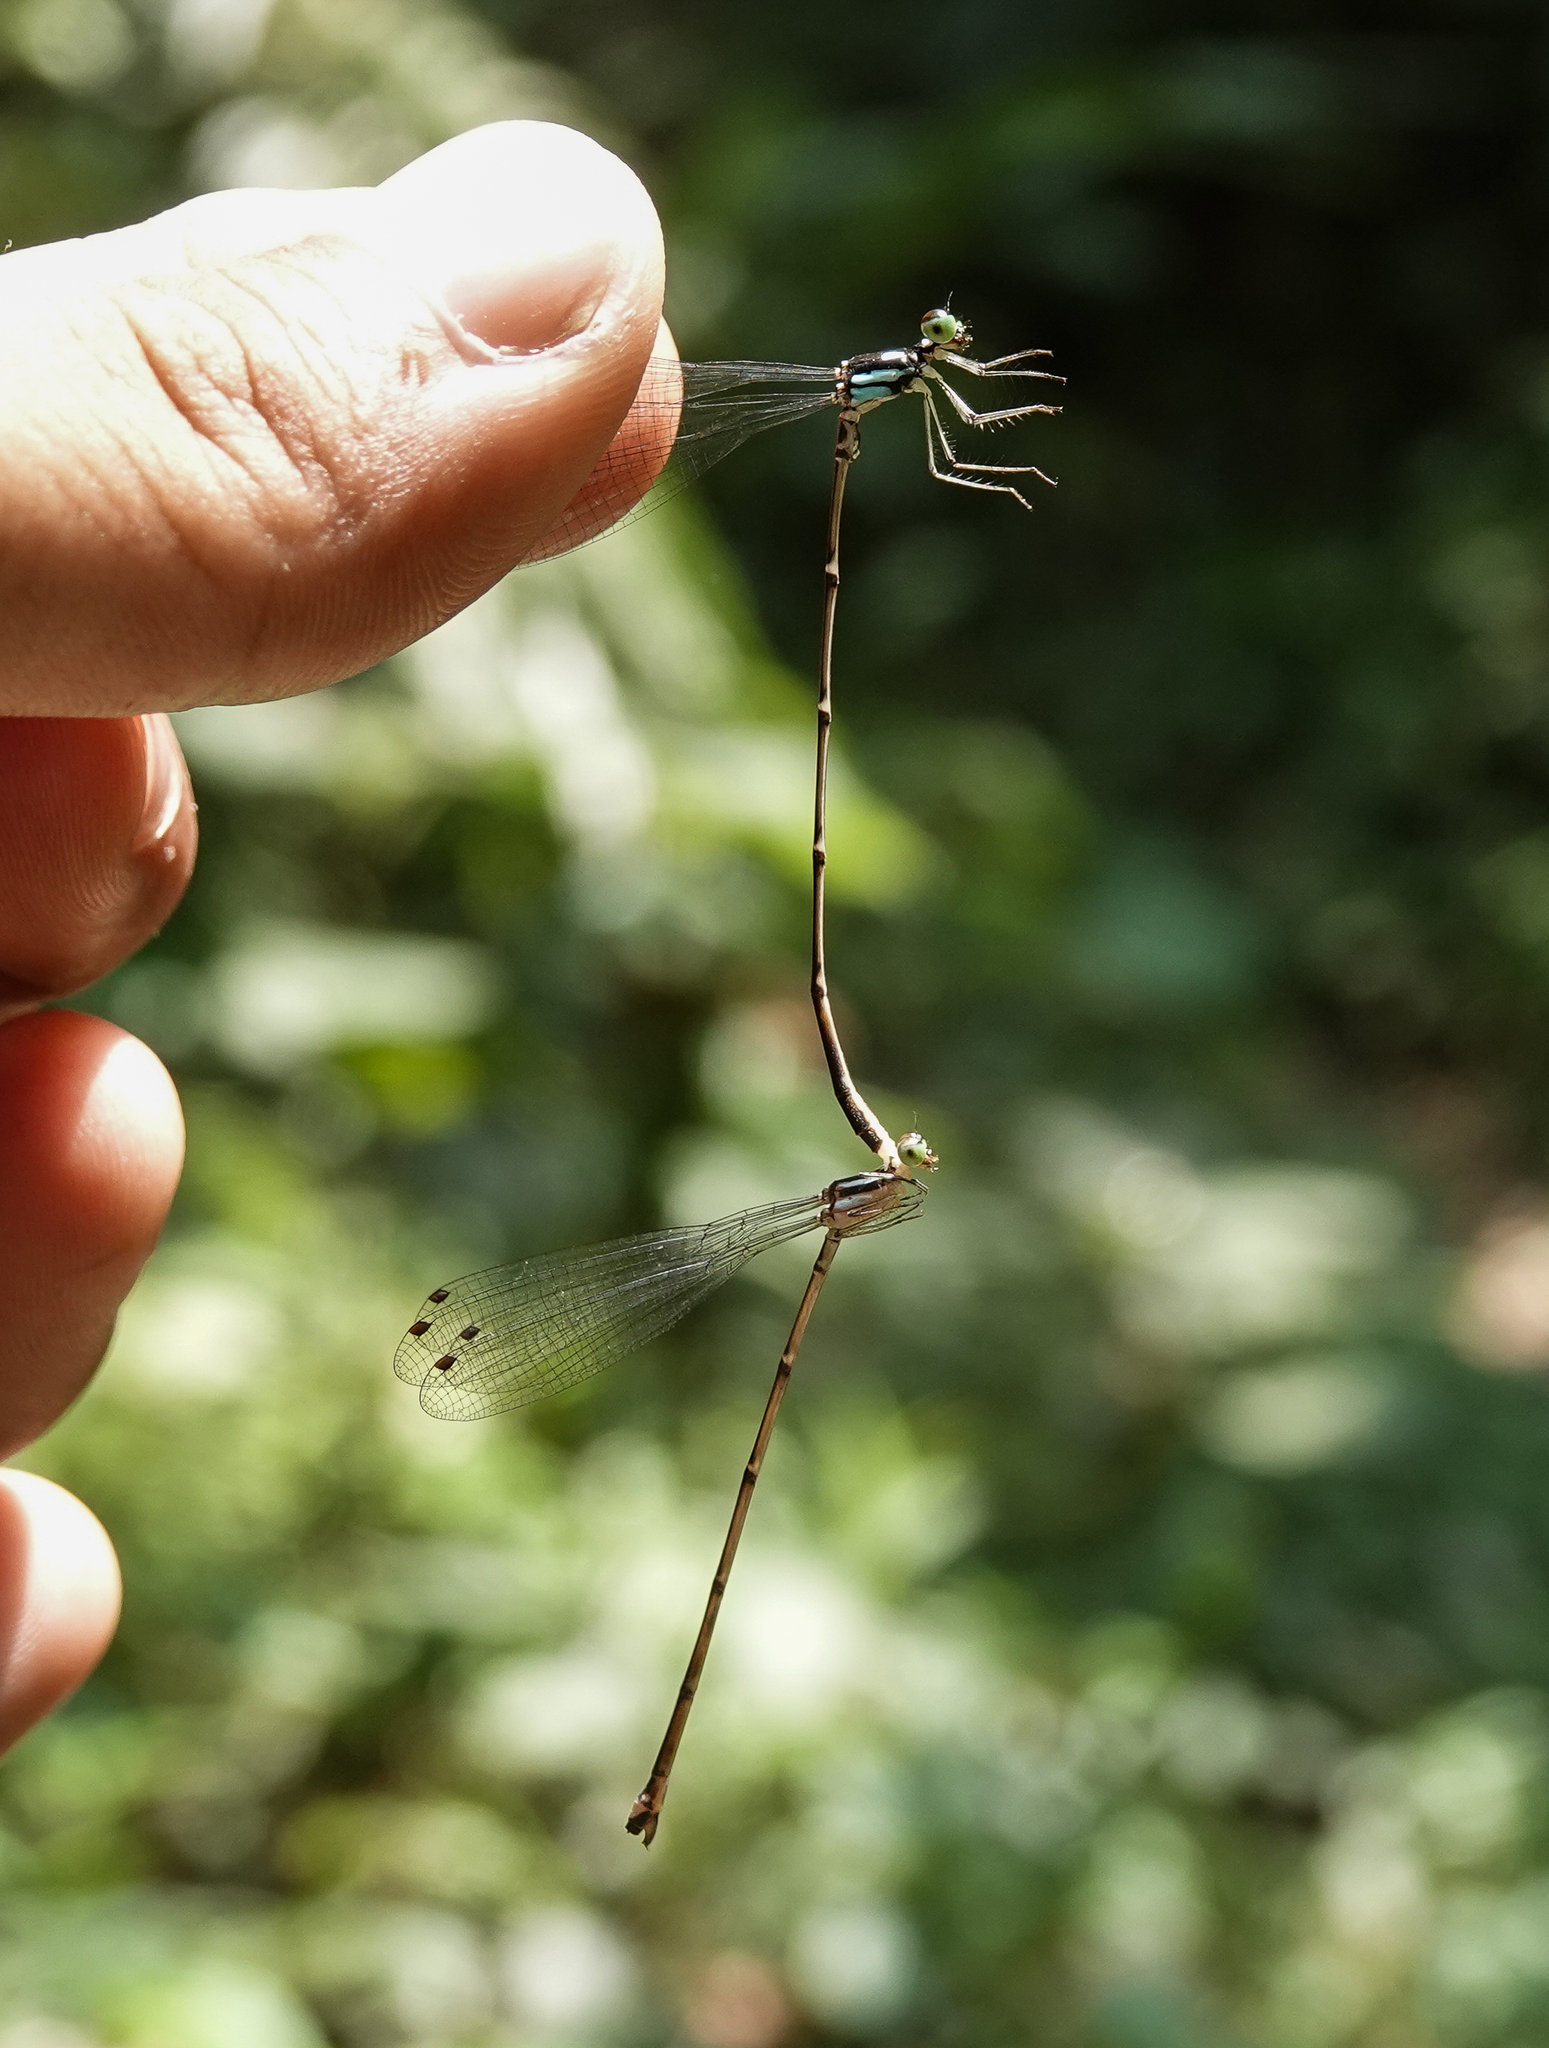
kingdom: Animalia
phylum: Arthropoda
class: Insecta
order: Odonata
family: Platycnemididae
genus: Coeliccia
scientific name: Coeliccia bimaculata
